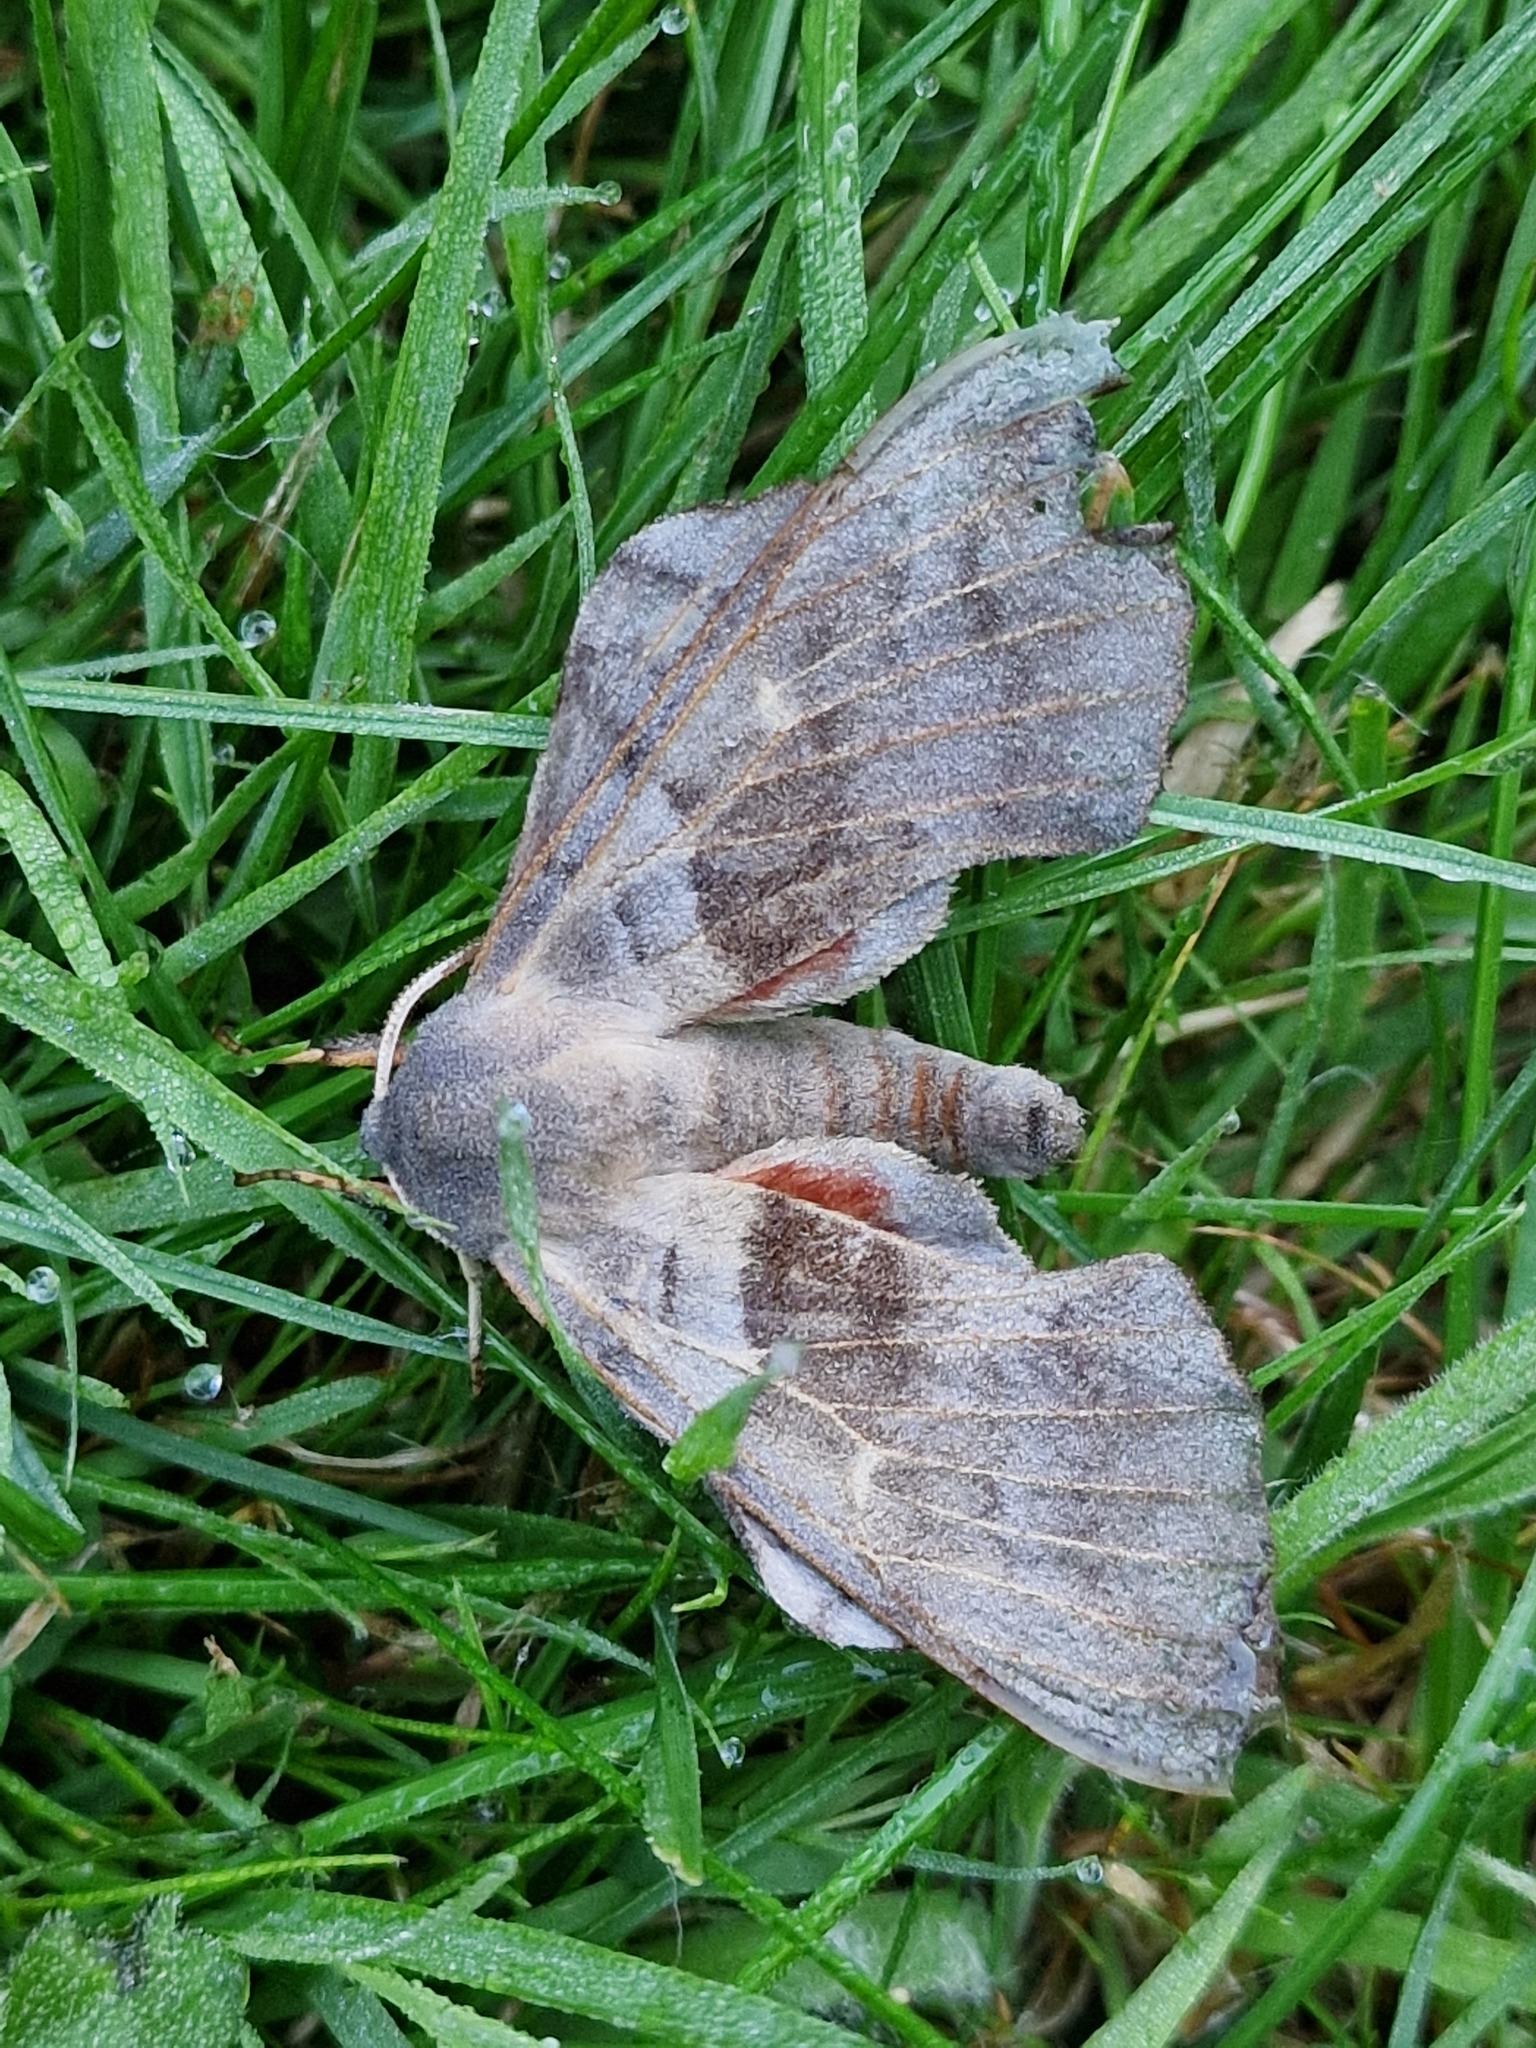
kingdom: Animalia
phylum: Arthropoda
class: Insecta
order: Lepidoptera
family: Sphingidae
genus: Laothoe
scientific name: Laothoe populi
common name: Poplar hawk-moth
